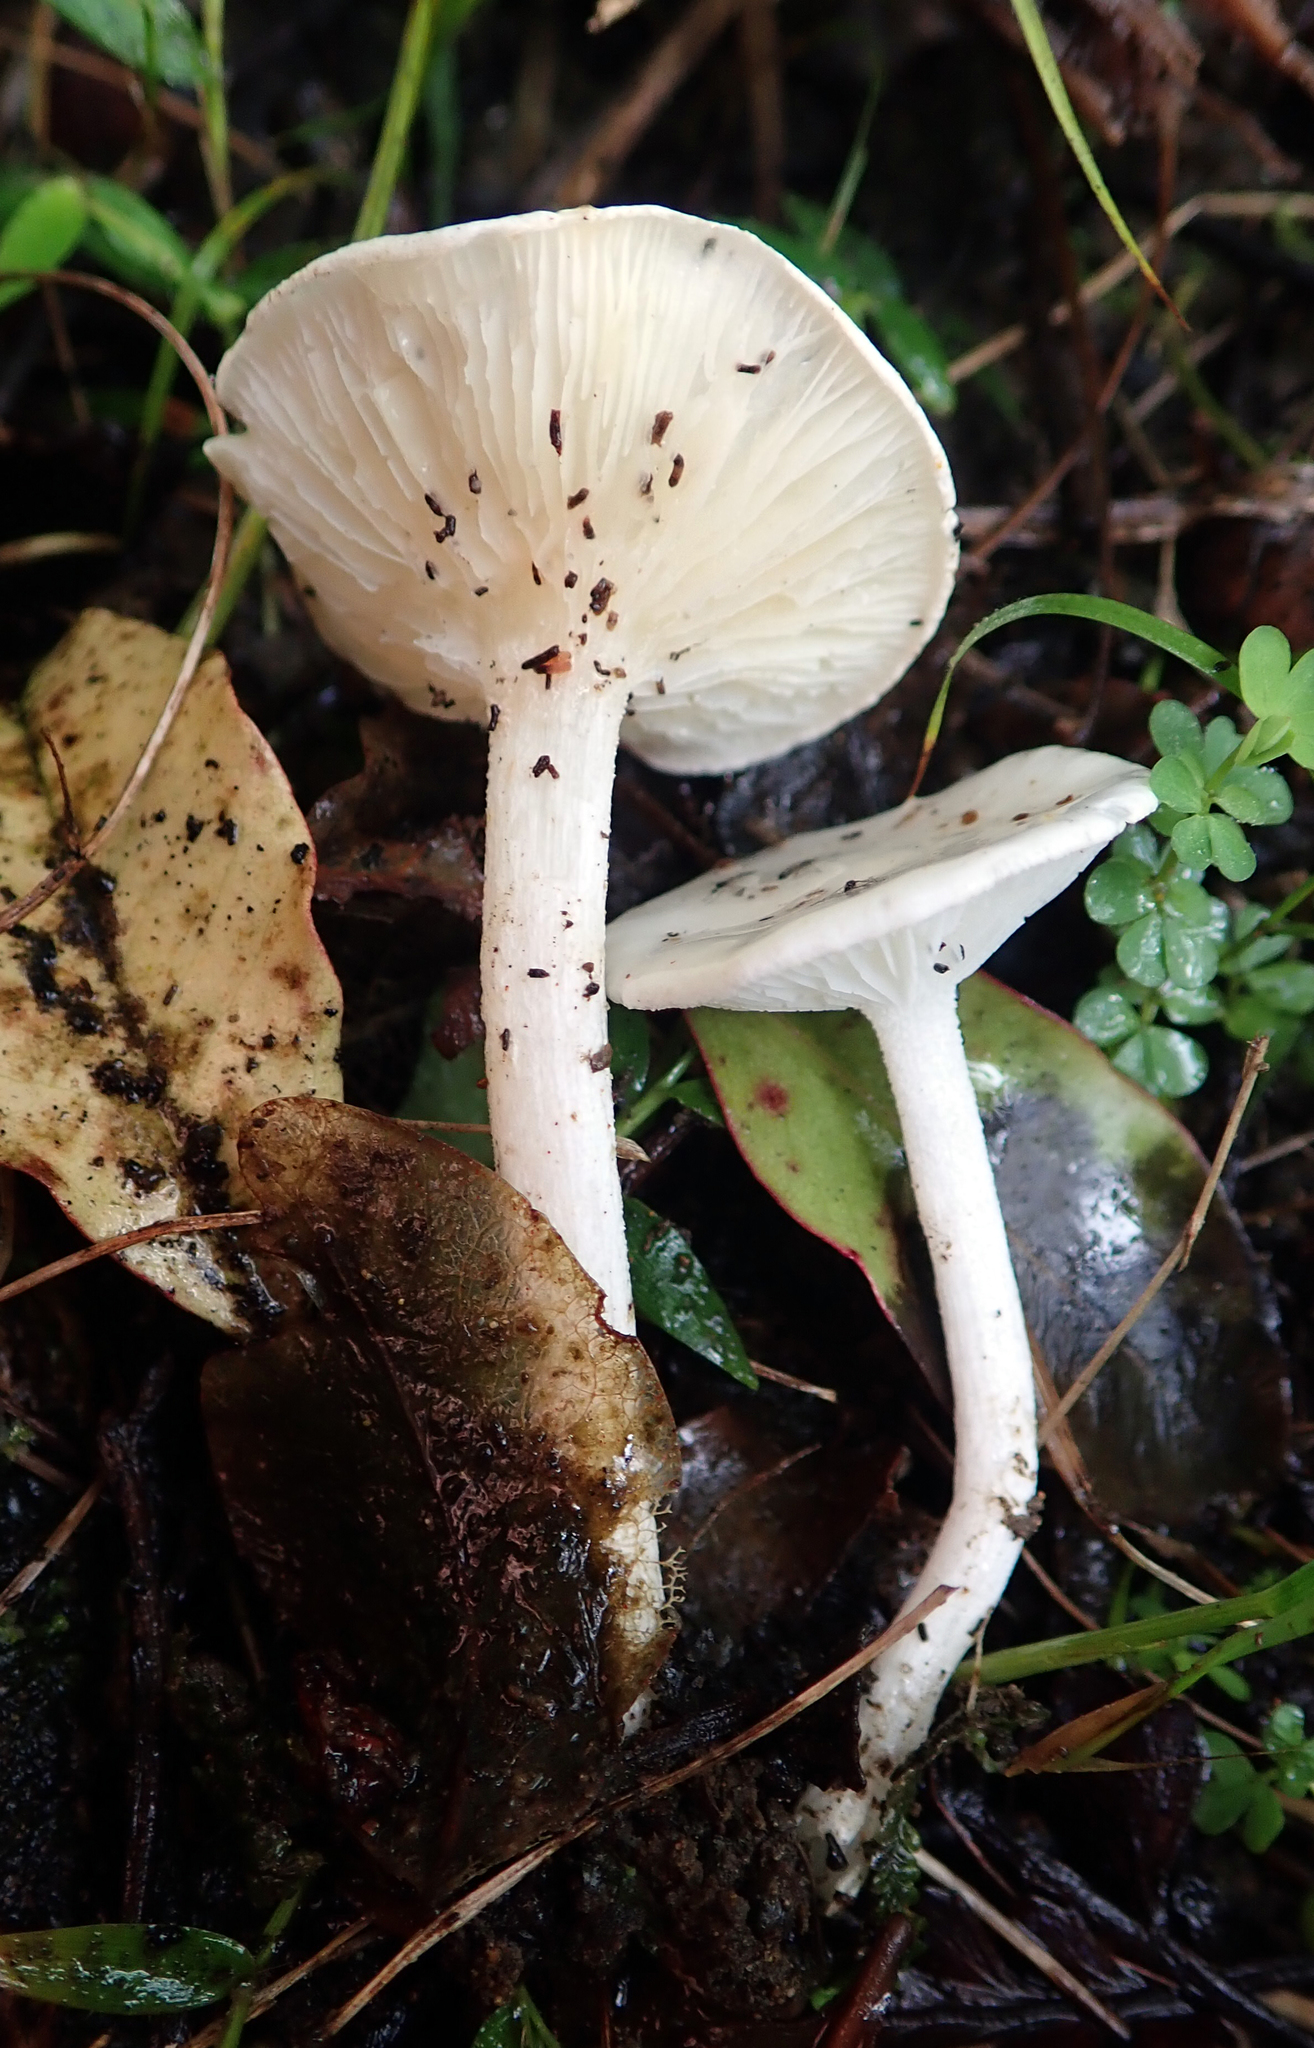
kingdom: Fungi
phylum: Basidiomycota
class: Agaricomycetes
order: Agaricales
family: Hygrophoraceae
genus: Hygrophorus
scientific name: Hygrophorus involutus
